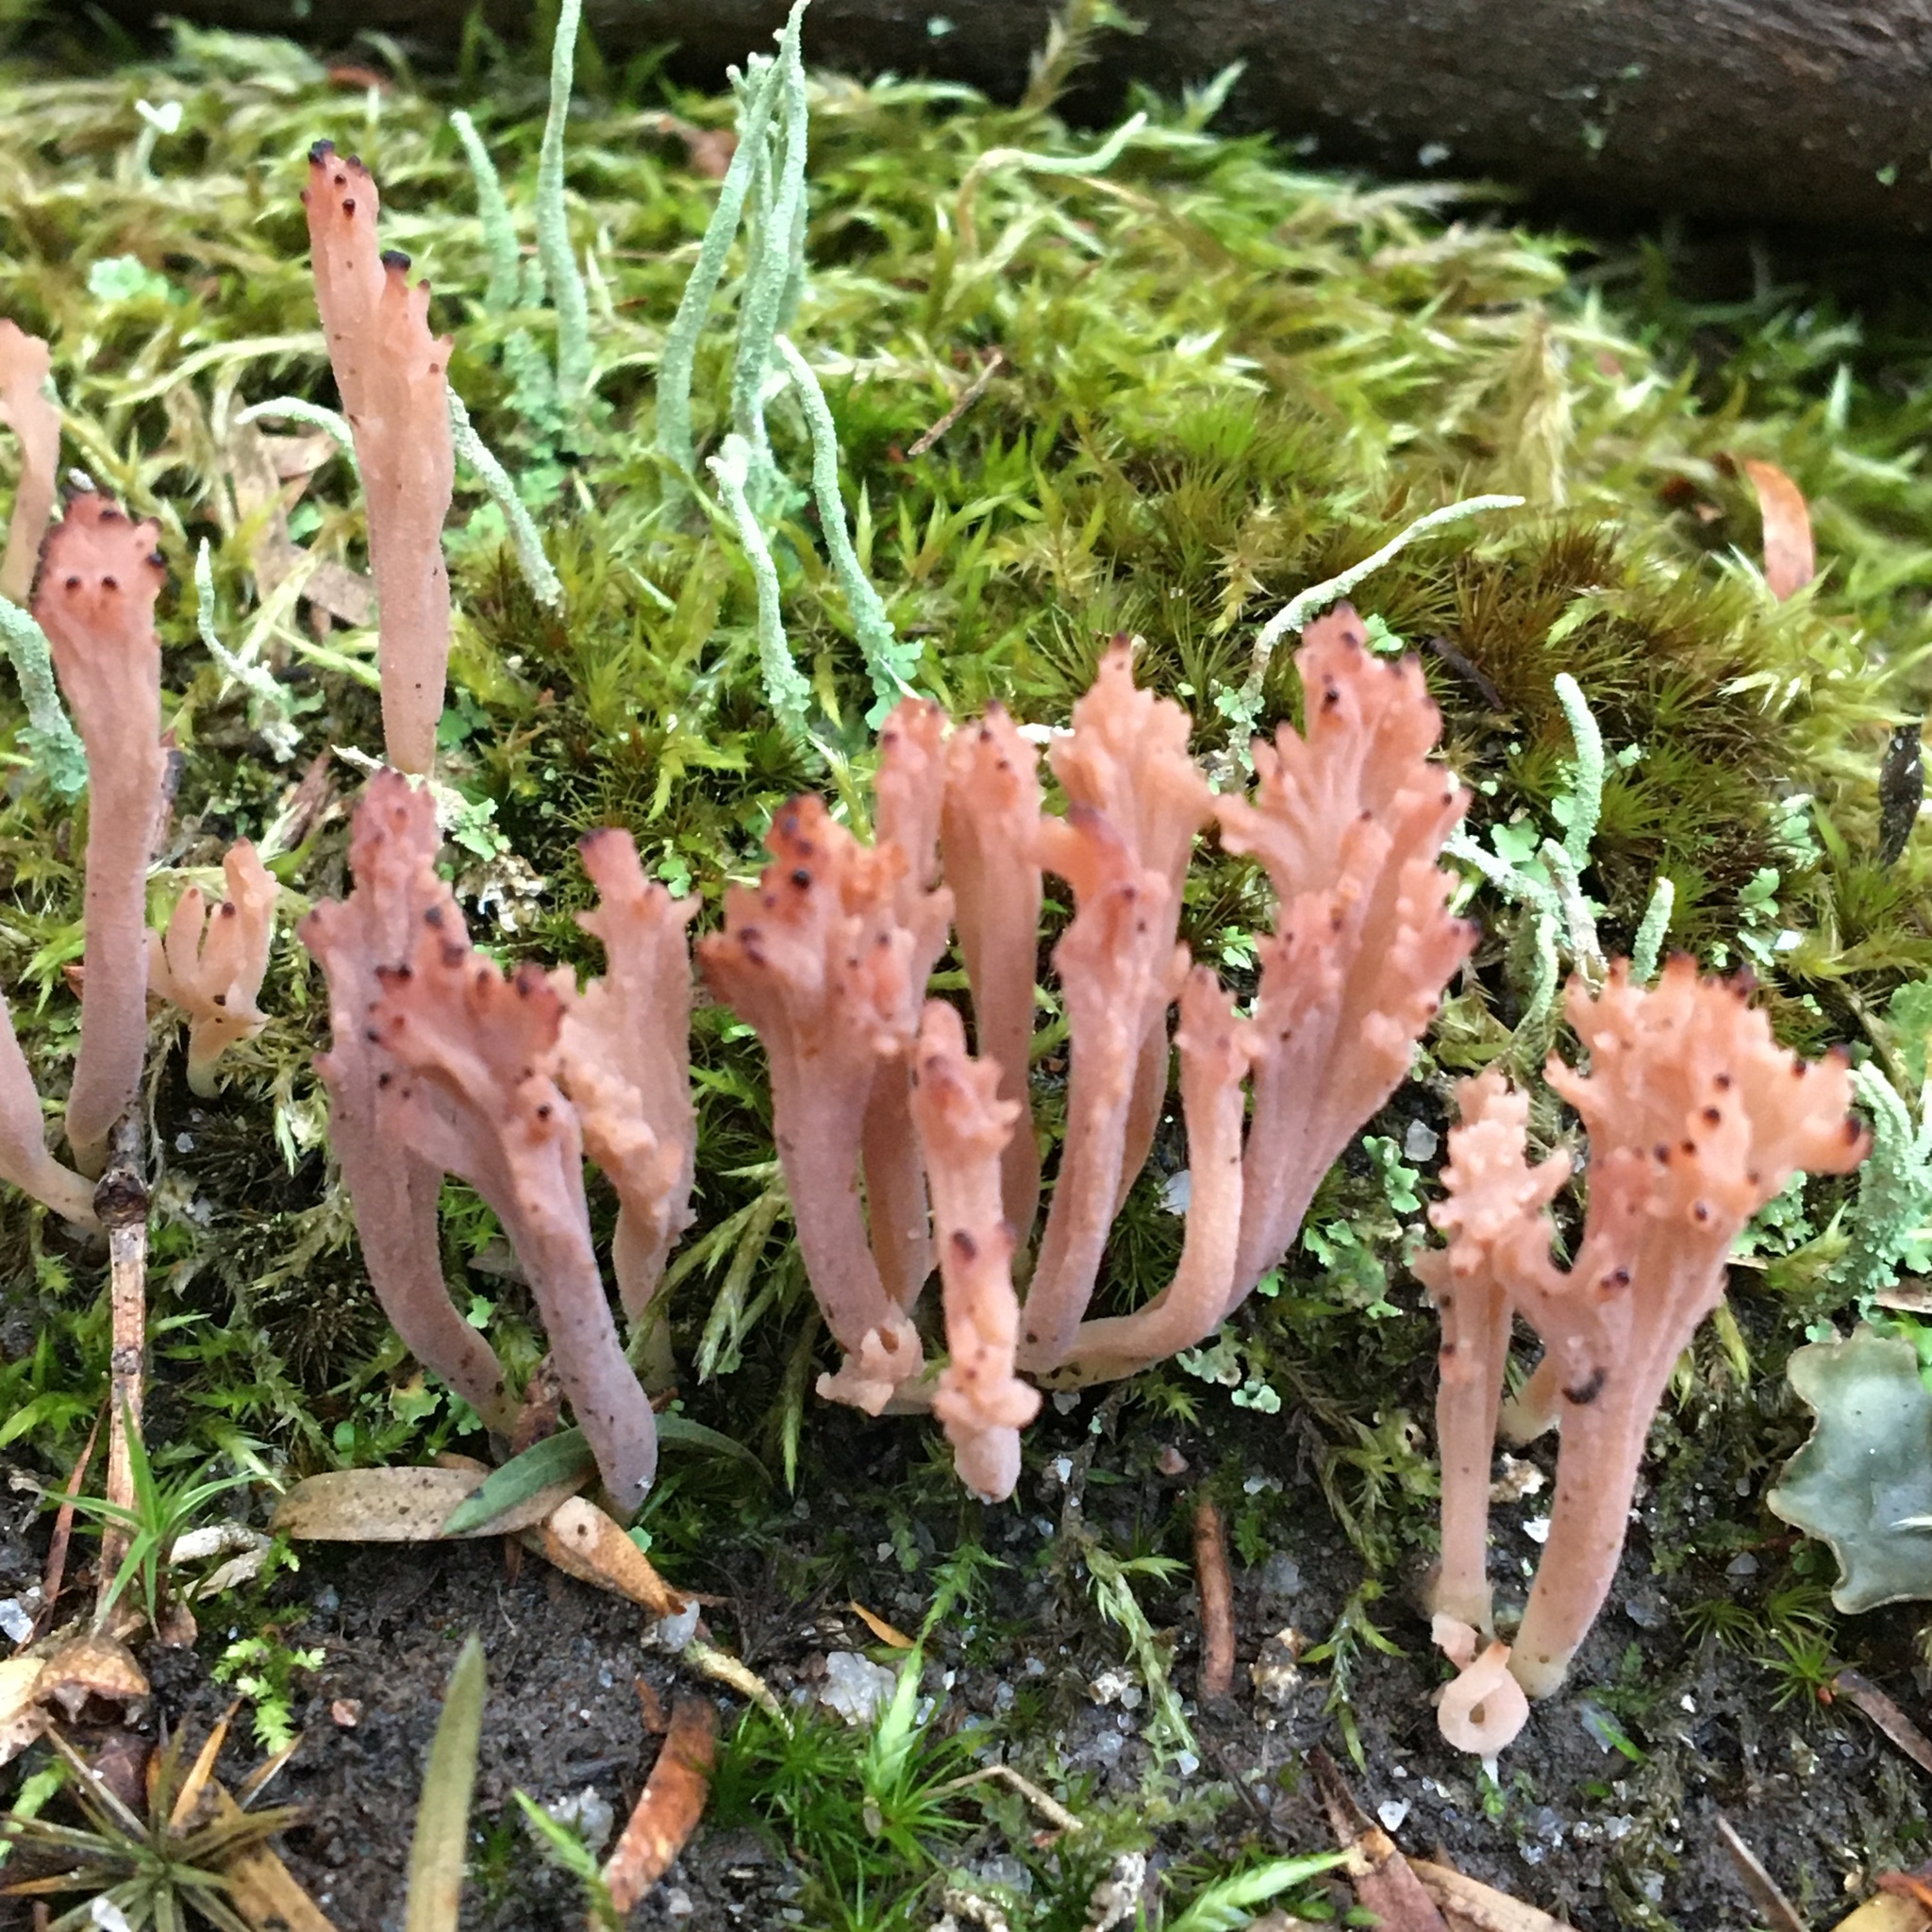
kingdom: Fungi
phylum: Basidiomycota
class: Agaricomycetes
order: Cantharellales
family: Hydnaceae
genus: Clavulina
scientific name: Clavulina vinaceocervina
